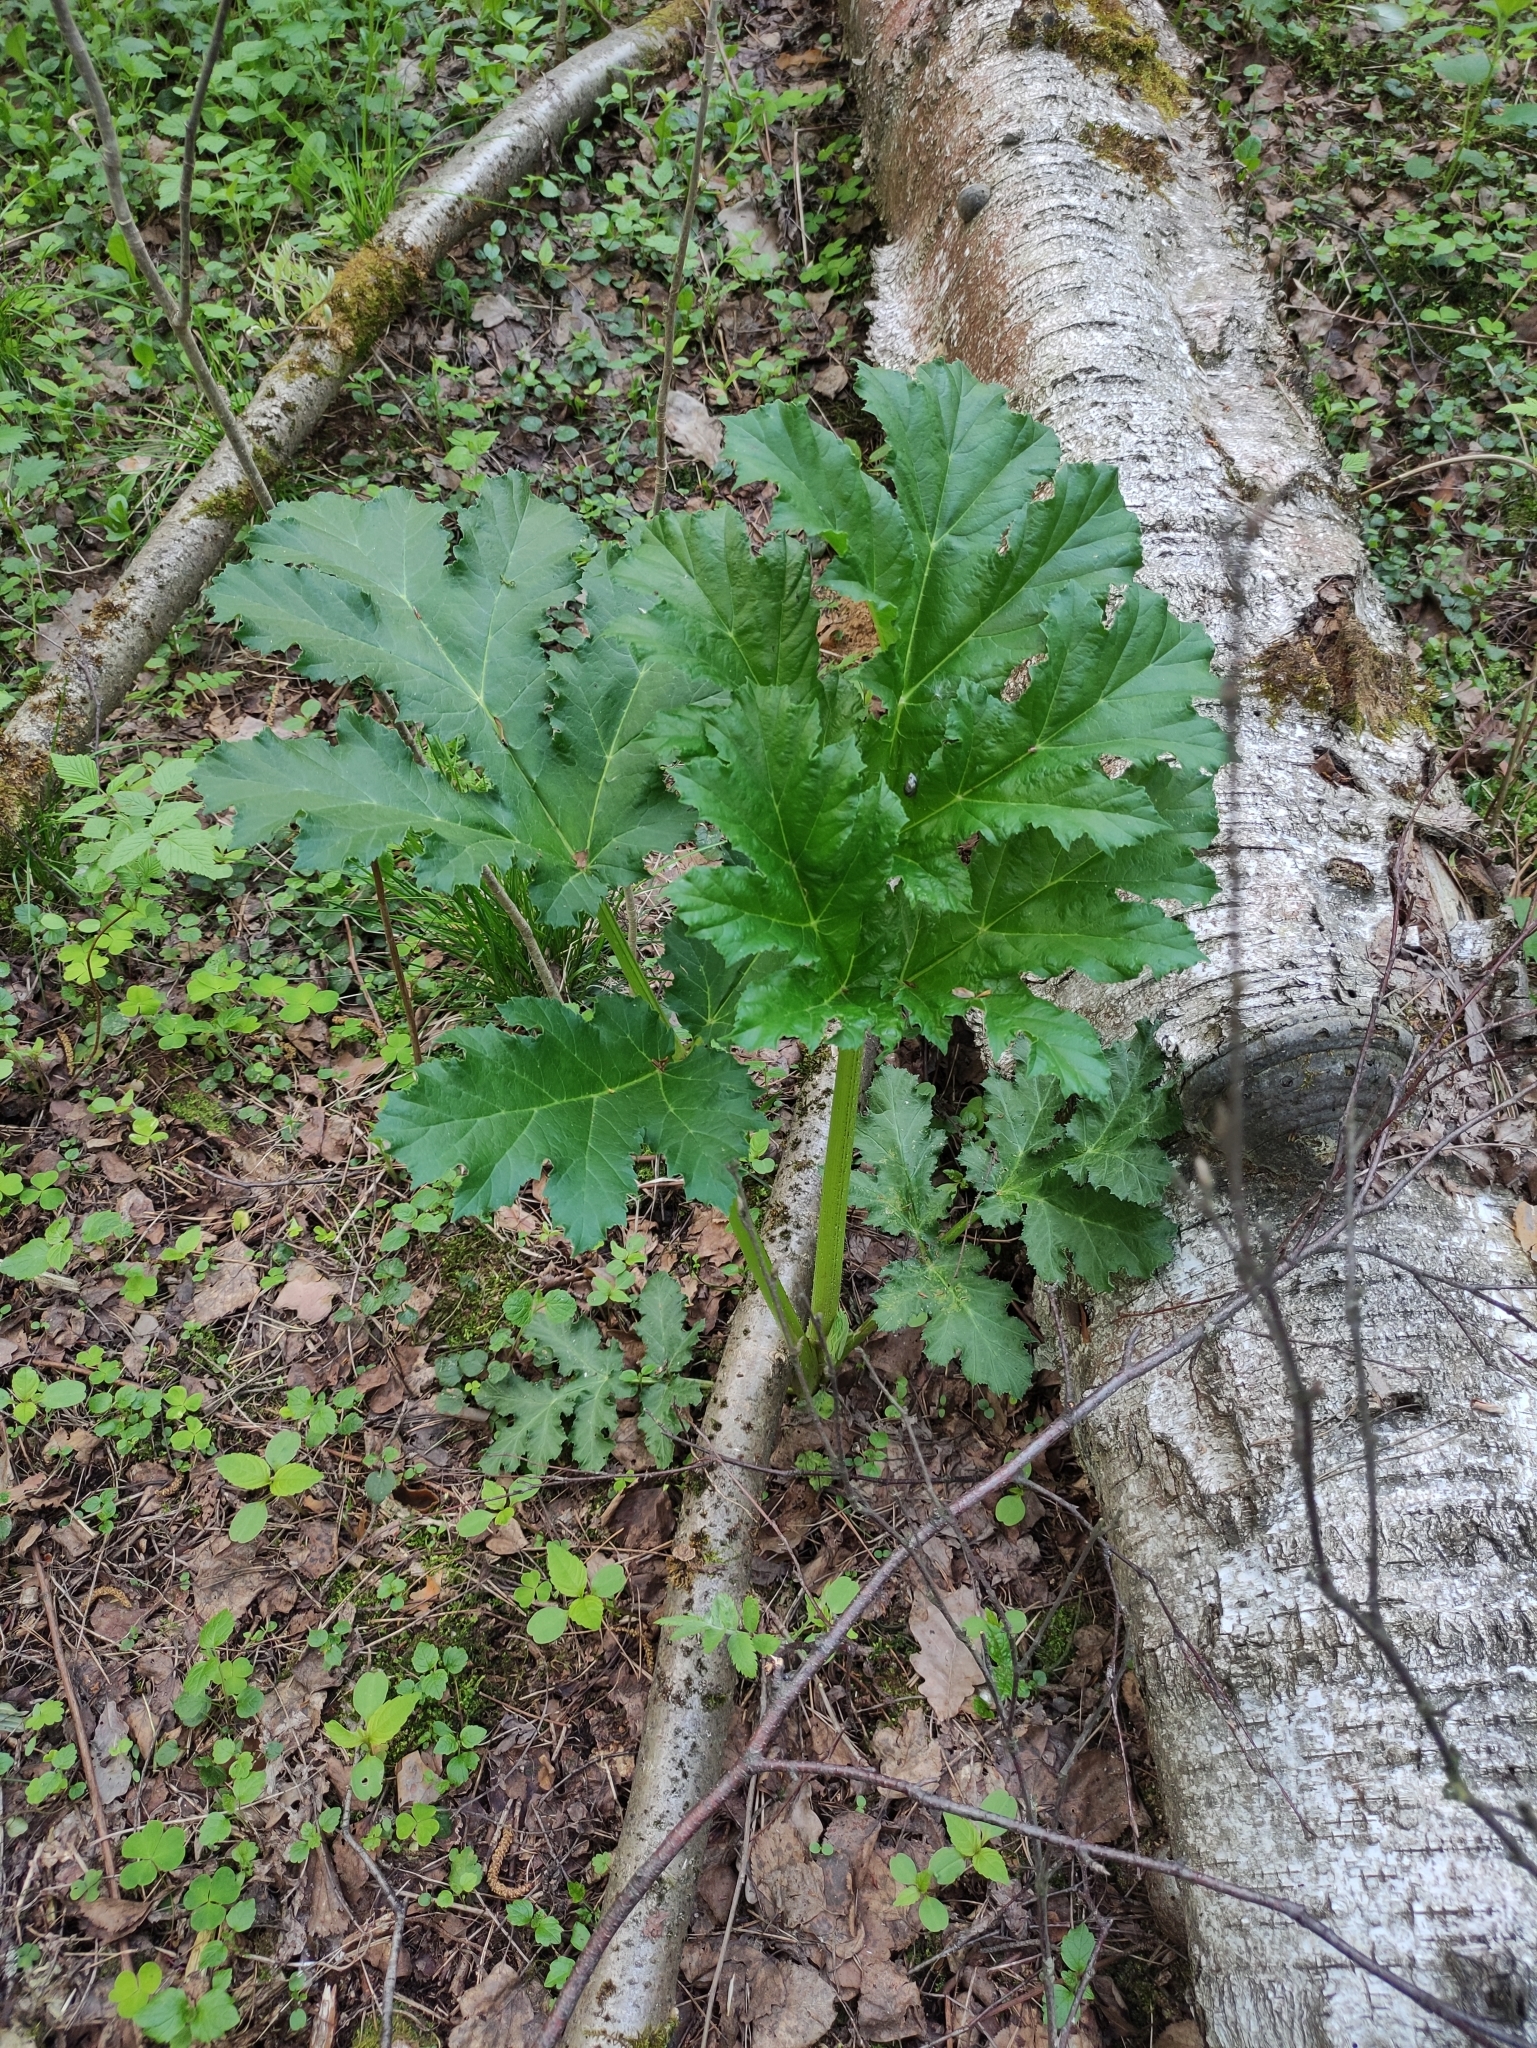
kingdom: Plantae
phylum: Tracheophyta
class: Magnoliopsida
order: Apiales
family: Apiaceae
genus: Heracleum
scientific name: Heracleum sosnowskyi
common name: Sosnowsky's hogweed
